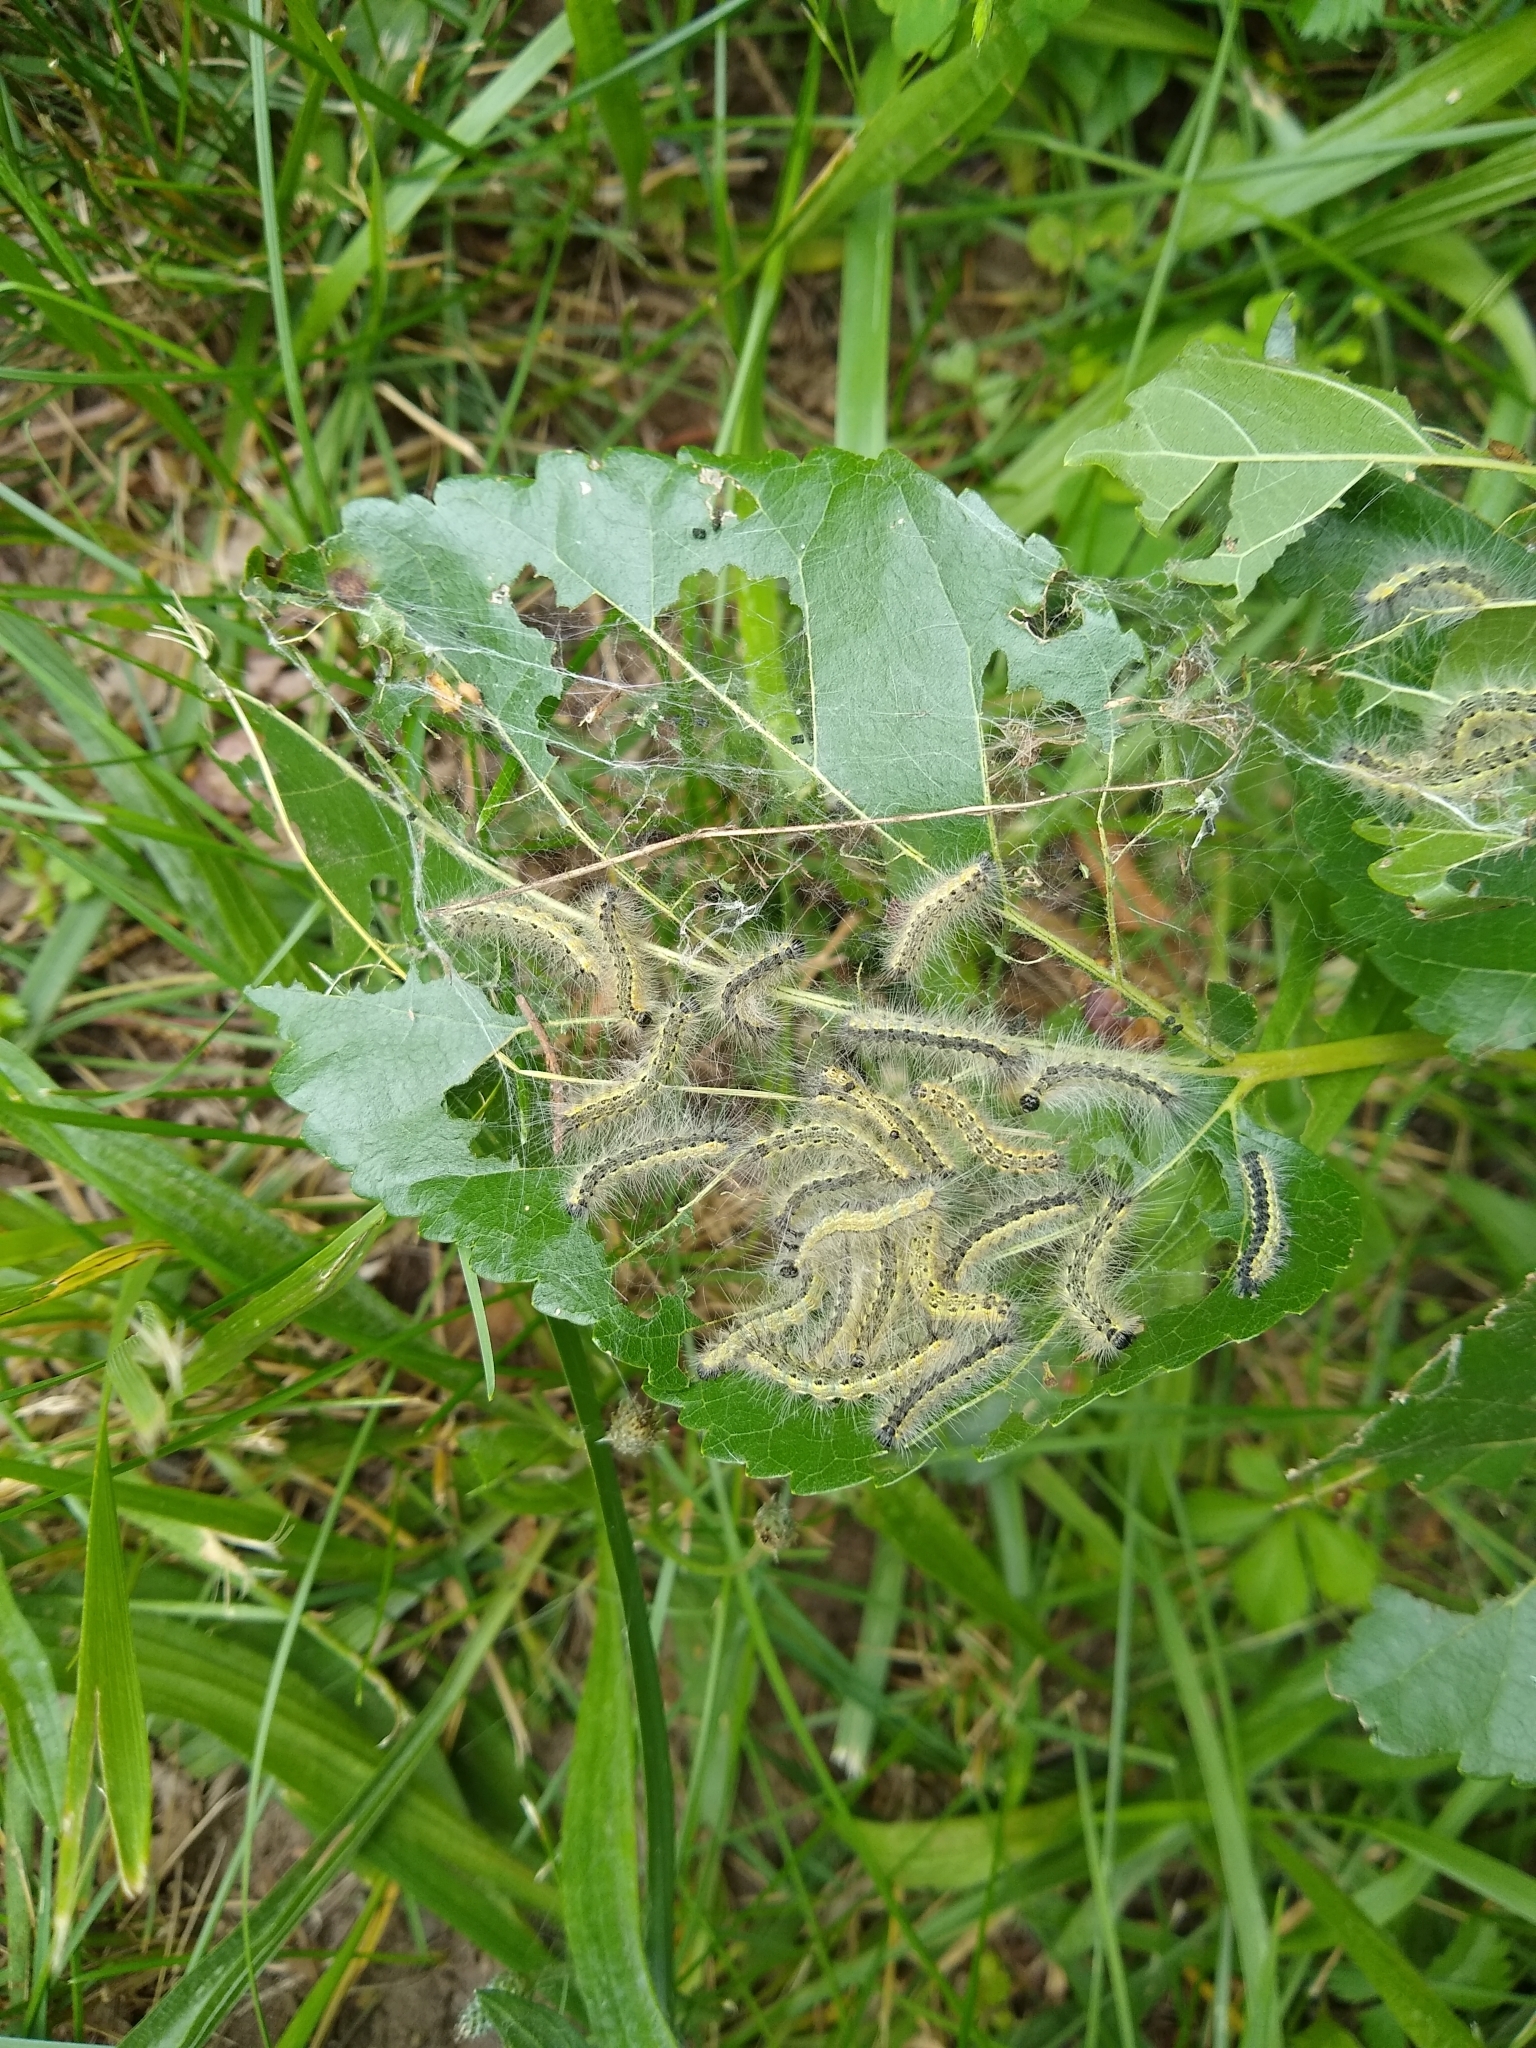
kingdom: Animalia
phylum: Arthropoda
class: Insecta
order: Lepidoptera
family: Erebidae
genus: Hyphantria
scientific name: Hyphantria cunea
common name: American white moth
